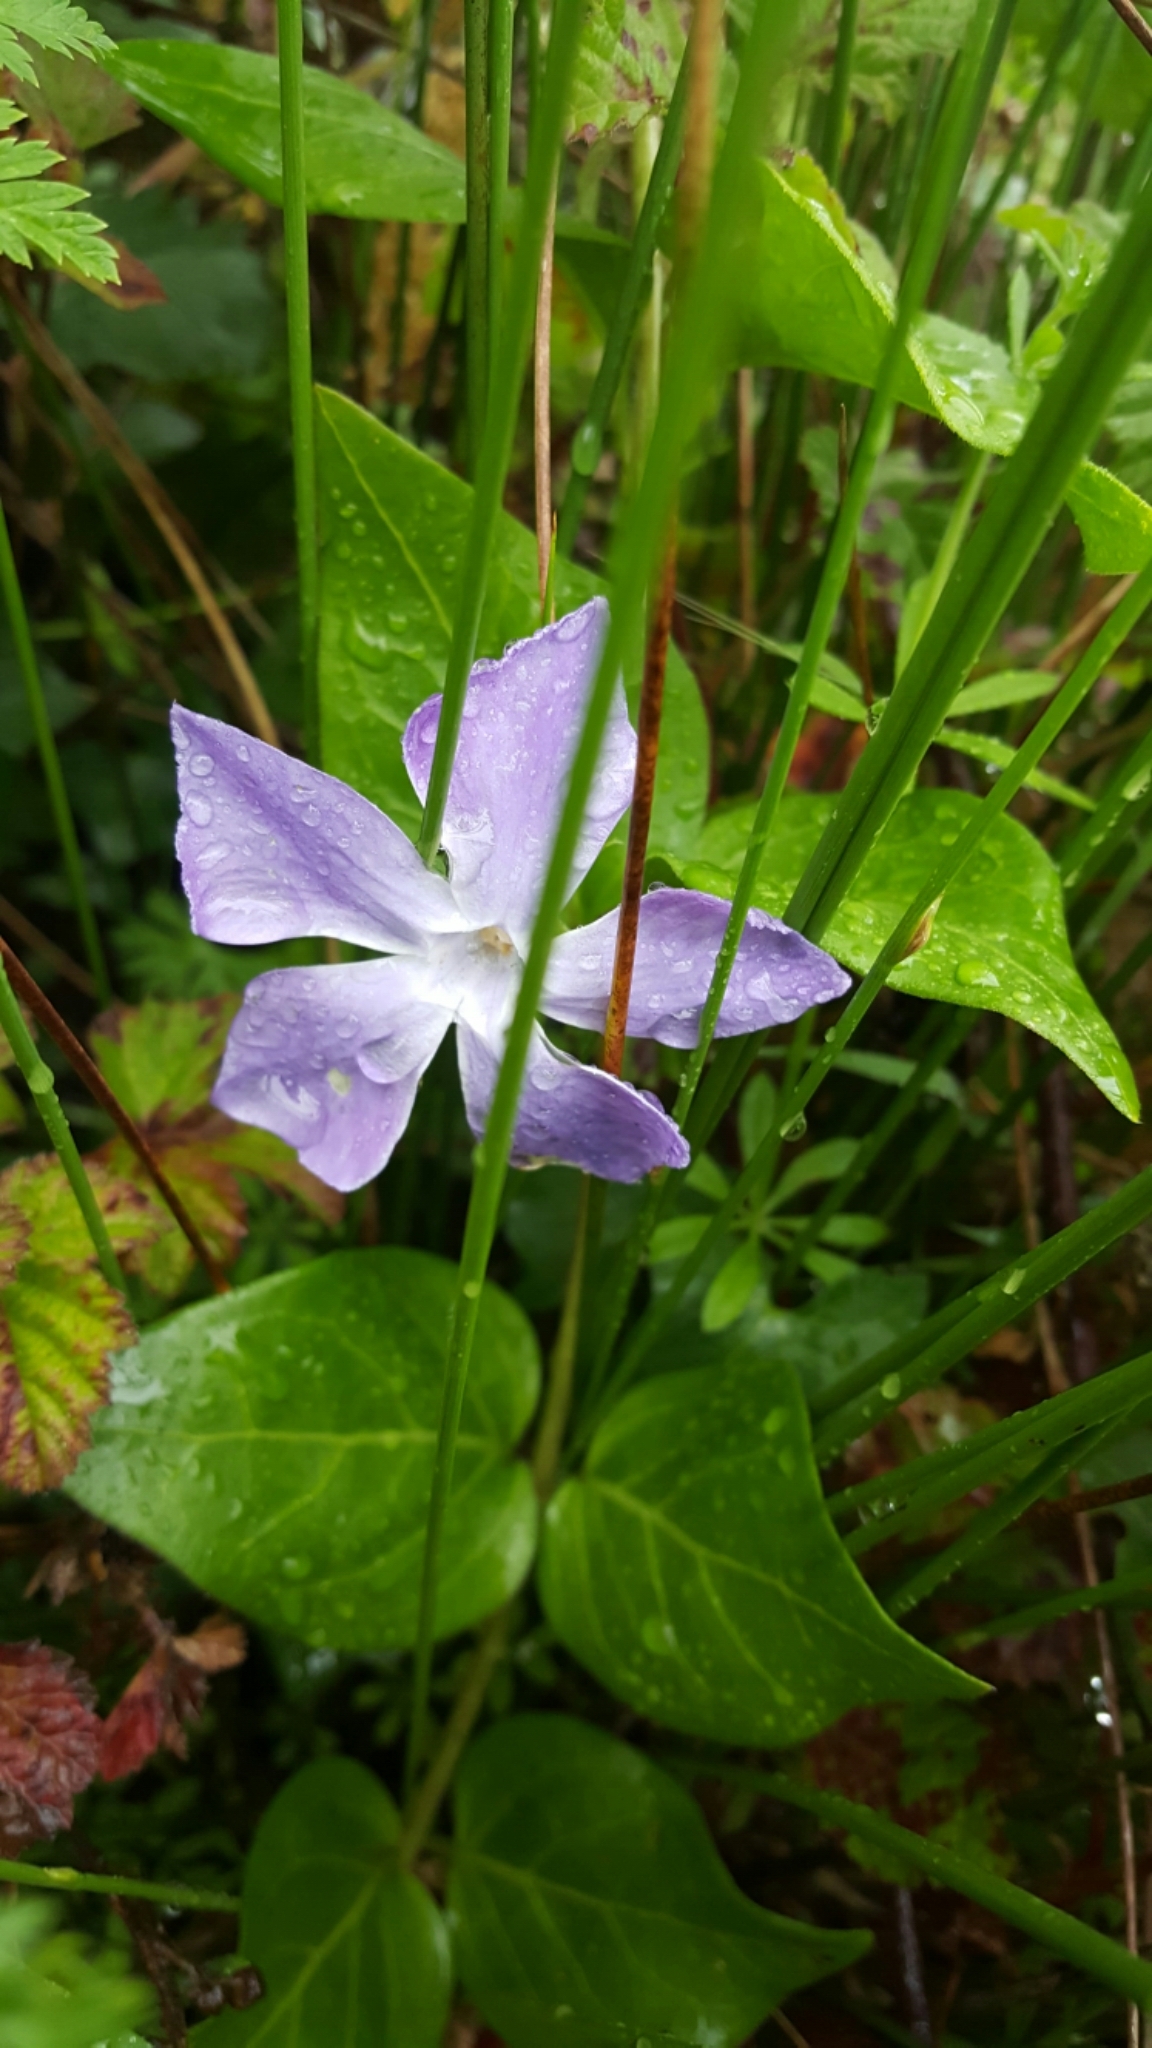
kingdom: Plantae
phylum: Tracheophyta
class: Magnoliopsida
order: Gentianales
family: Apocynaceae
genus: Vinca
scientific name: Vinca major
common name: Greater periwinkle
